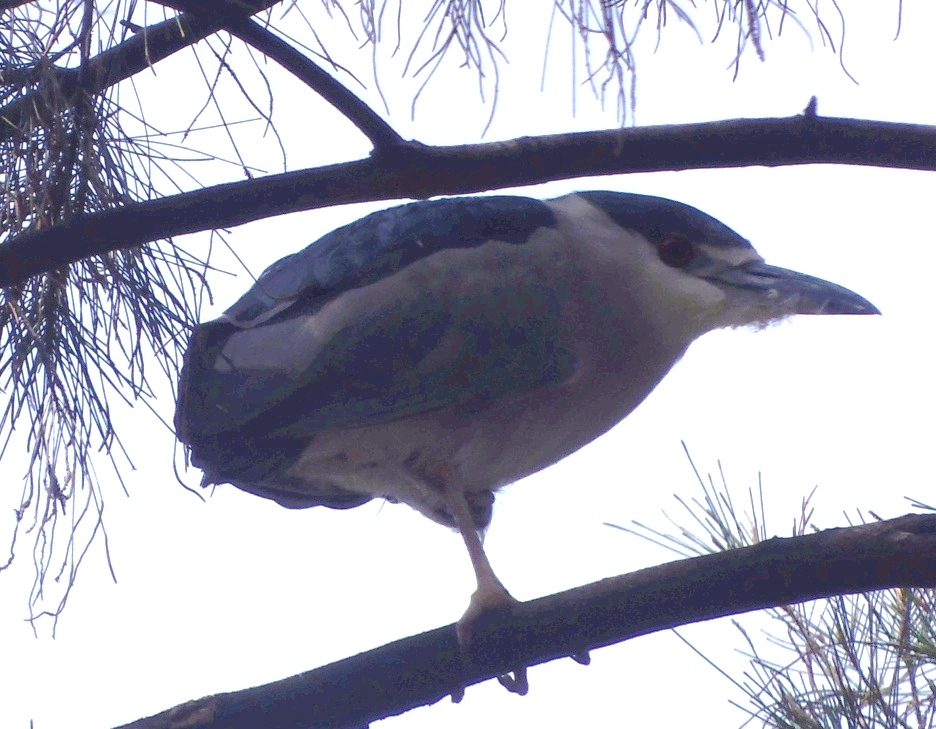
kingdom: Animalia
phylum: Chordata
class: Aves
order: Pelecaniformes
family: Ardeidae
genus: Nycticorax
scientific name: Nycticorax nycticorax
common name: Black-crowned night heron
